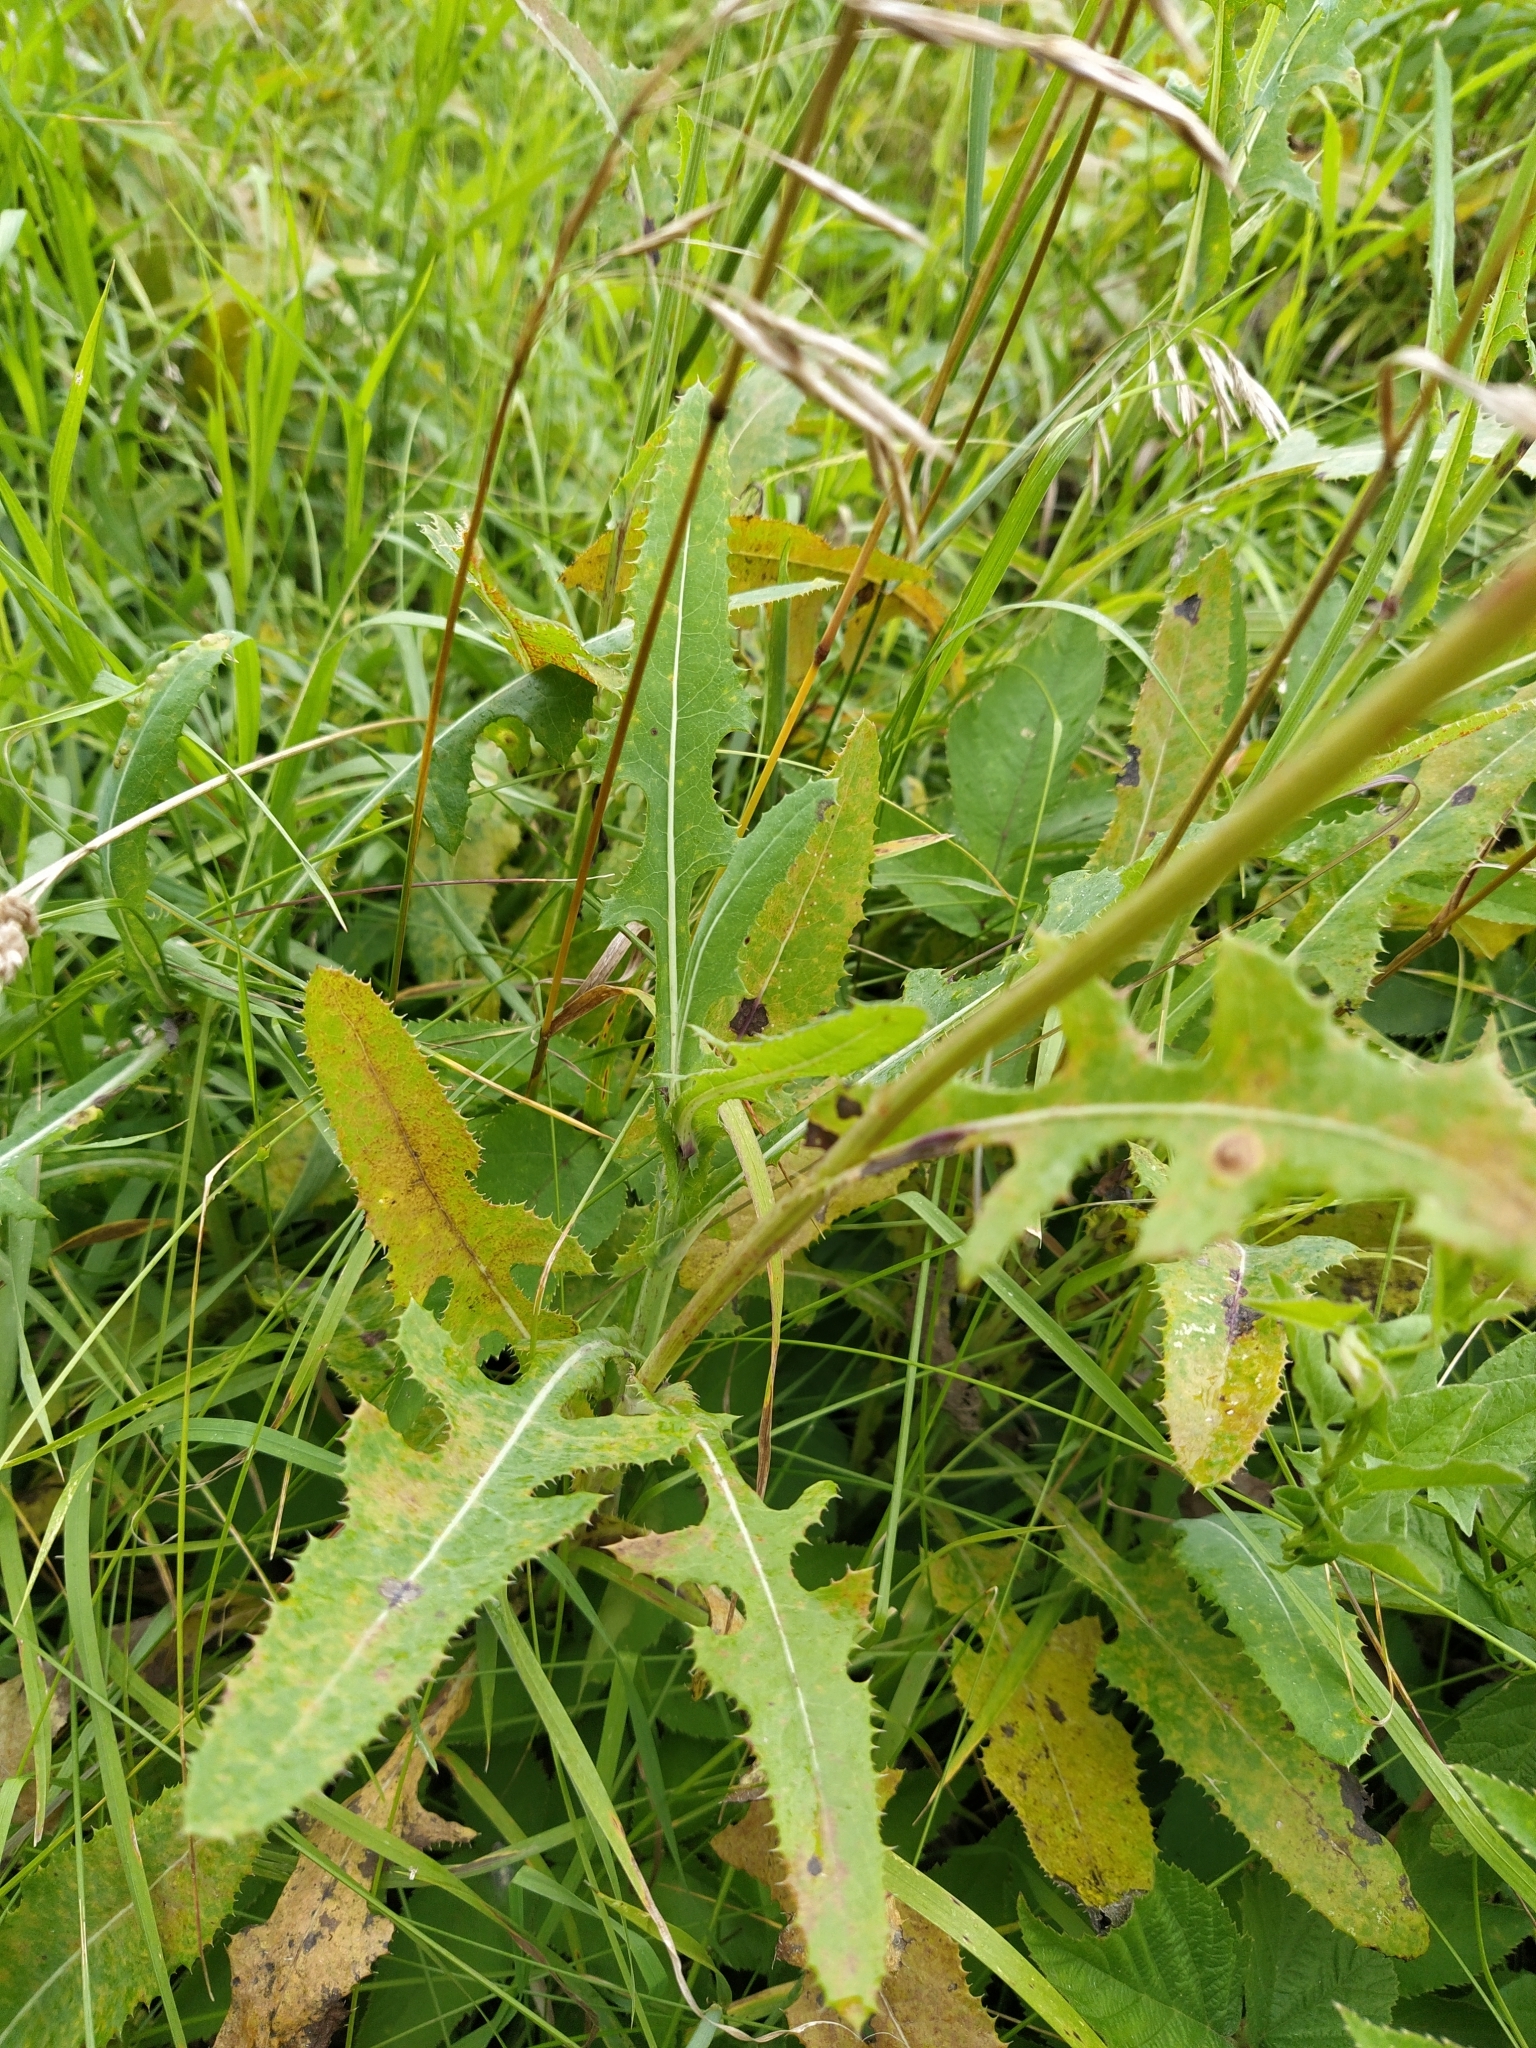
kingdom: Plantae
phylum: Tracheophyta
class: Magnoliopsida
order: Asterales
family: Asteraceae
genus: Sonchus
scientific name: Sonchus arvensis
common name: Perennial sow-thistle
